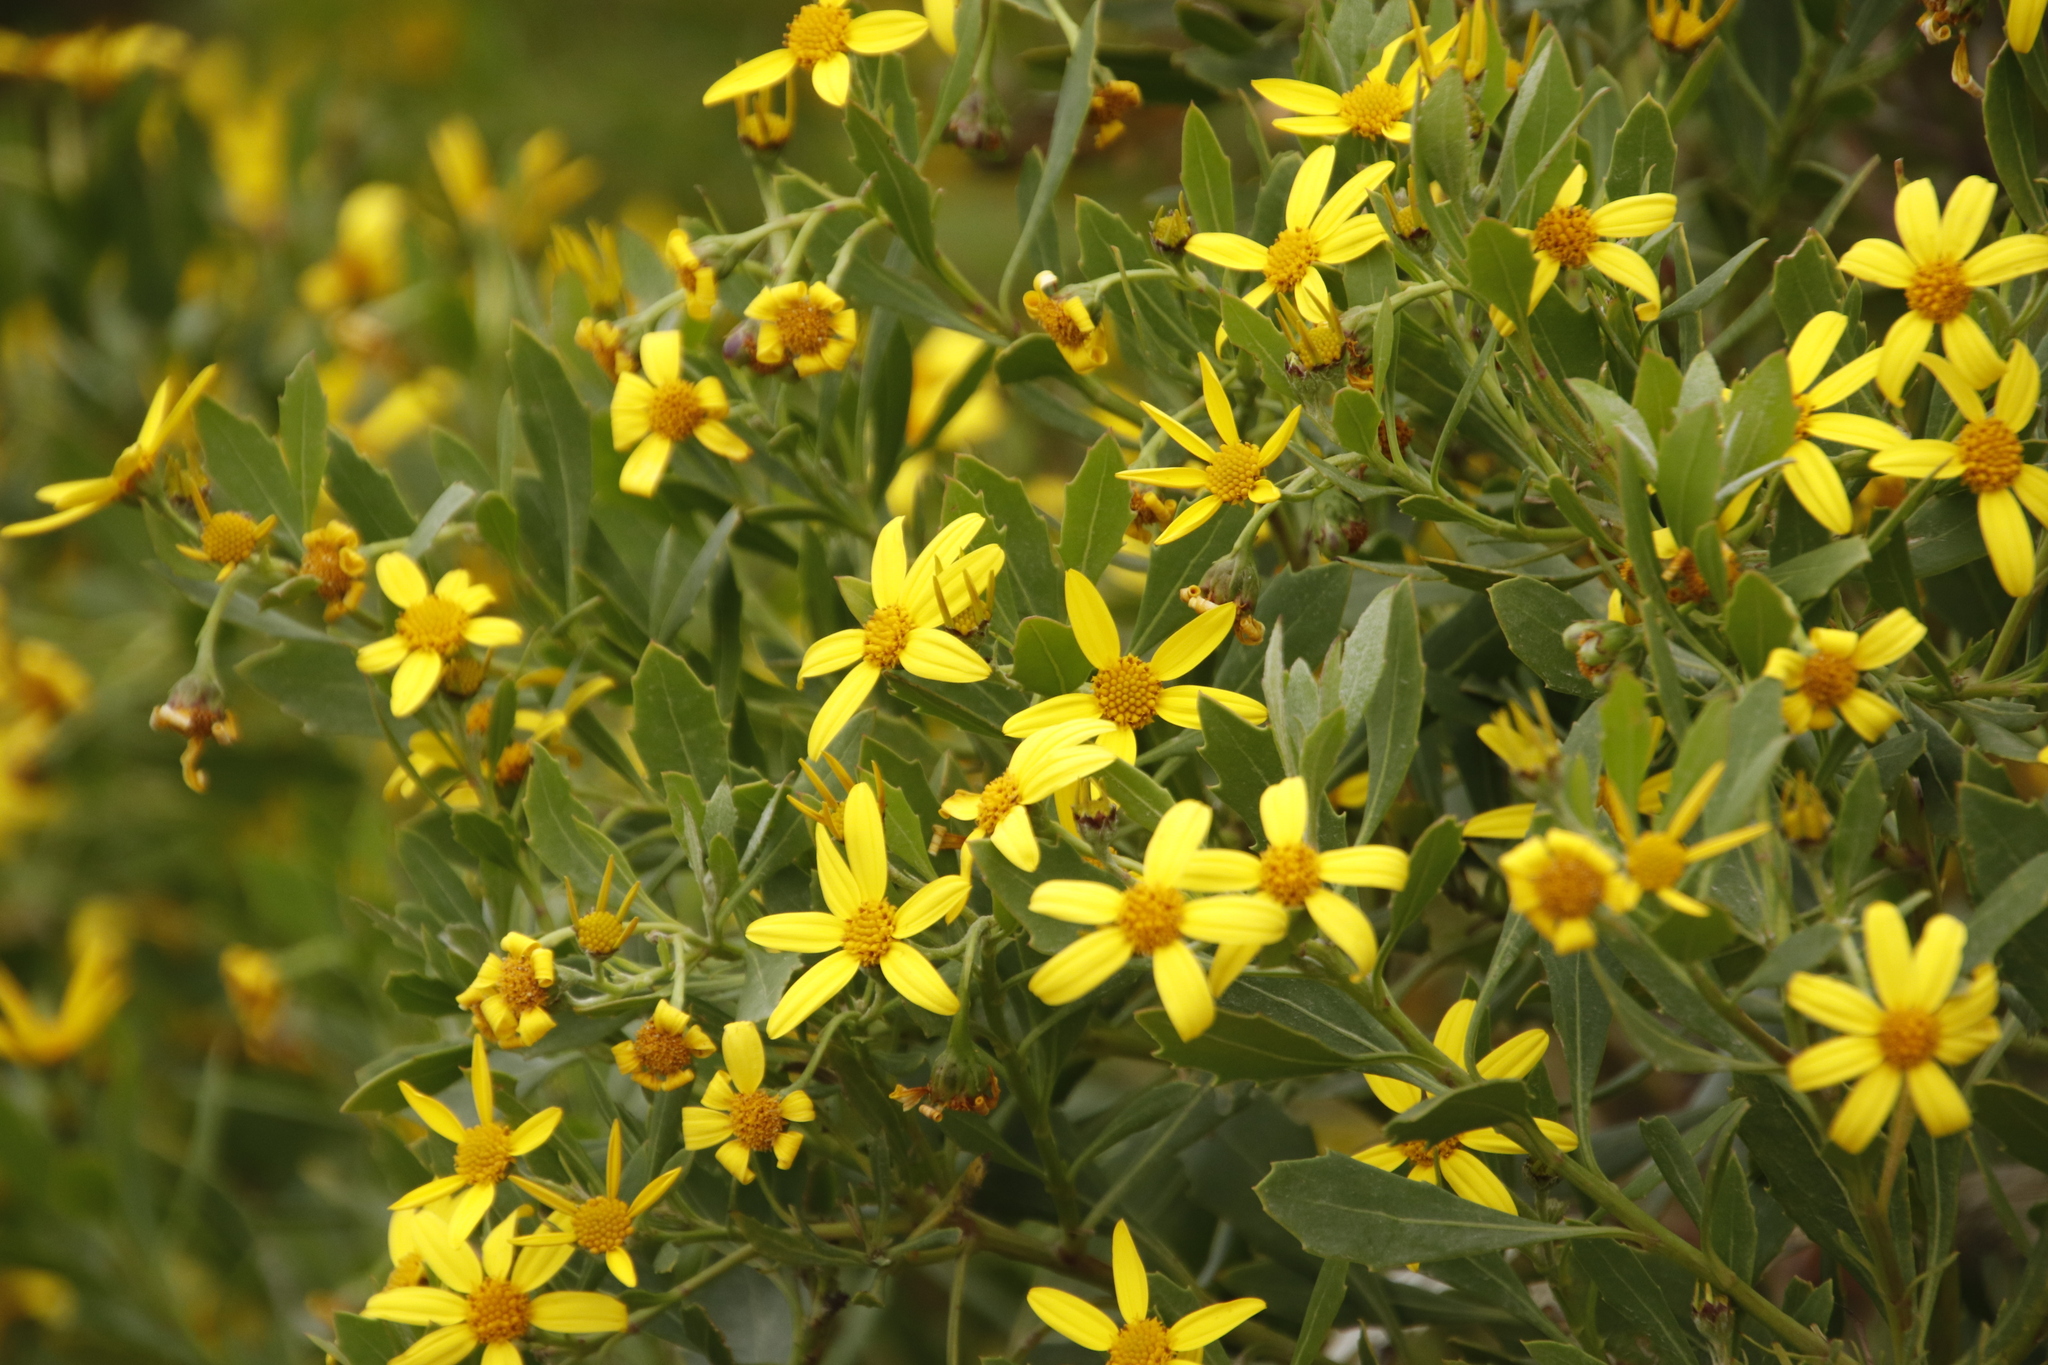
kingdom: Plantae
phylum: Tracheophyta
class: Magnoliopsida
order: Asterales
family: Asteraceae
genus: Osteospermum
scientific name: Osteospermum moniliferum
